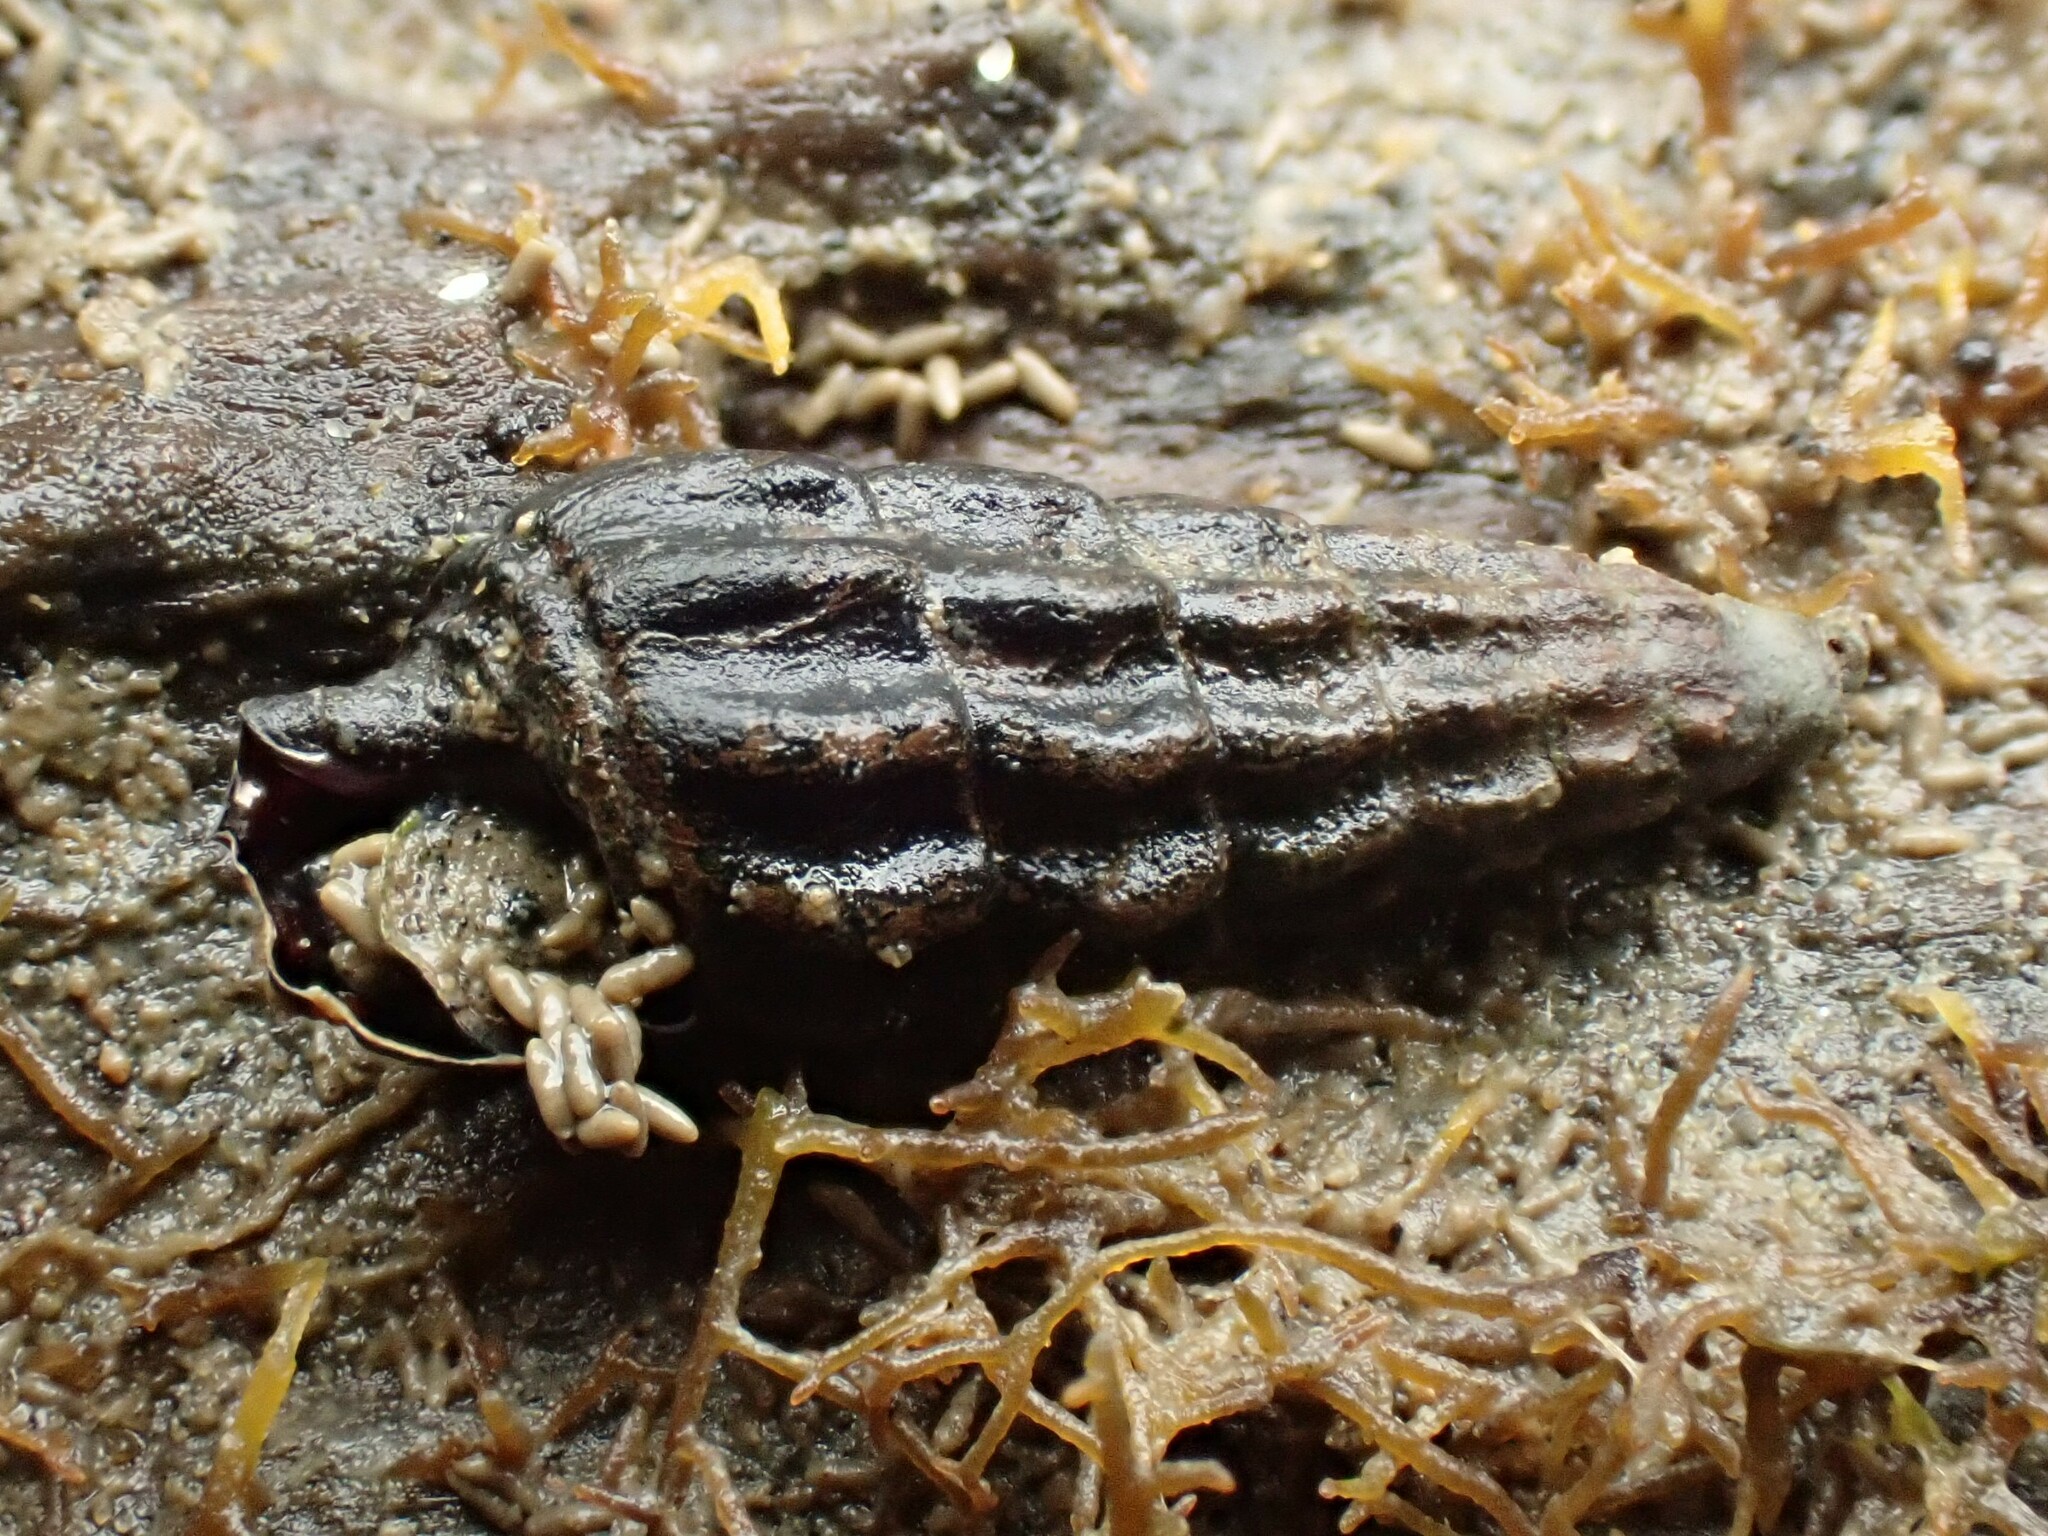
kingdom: Animalia
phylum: Mollusca
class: Gastropoda
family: Batillariidae
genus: Zeacumantus
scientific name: Zeacumantus subcarinatus
